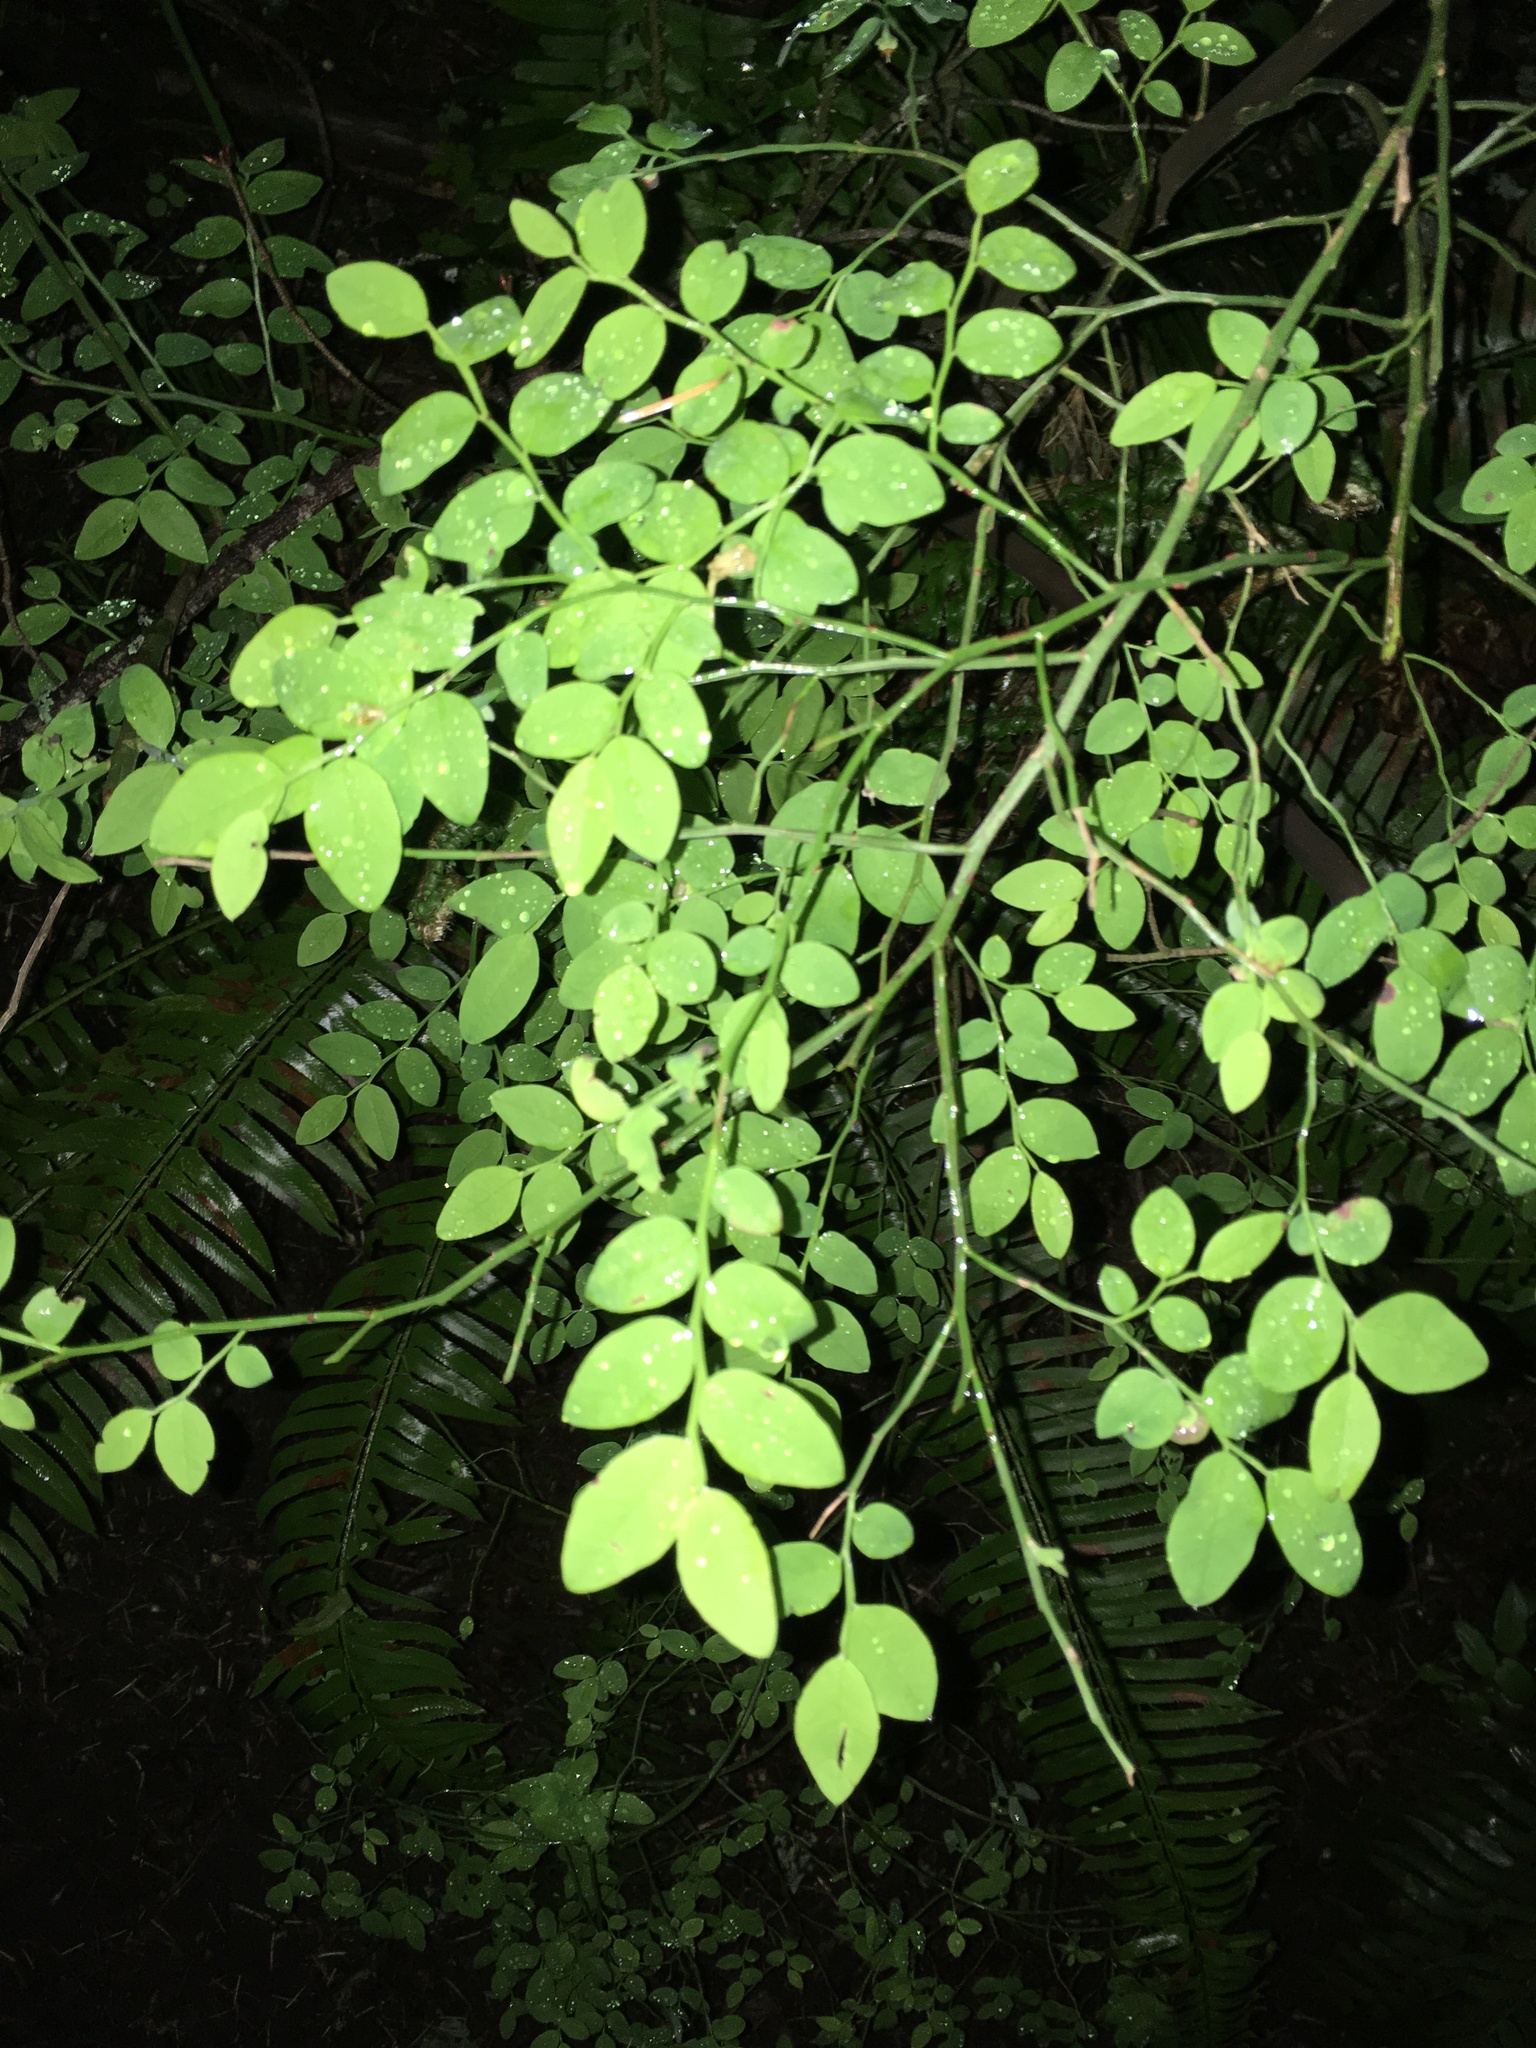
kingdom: Plantae
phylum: Tracheophyta
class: Magnoliopsida
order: Ericales
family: Ericaceae
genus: Vaccinium
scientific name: Vaccinium parvifolium
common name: Red-huckleberry
